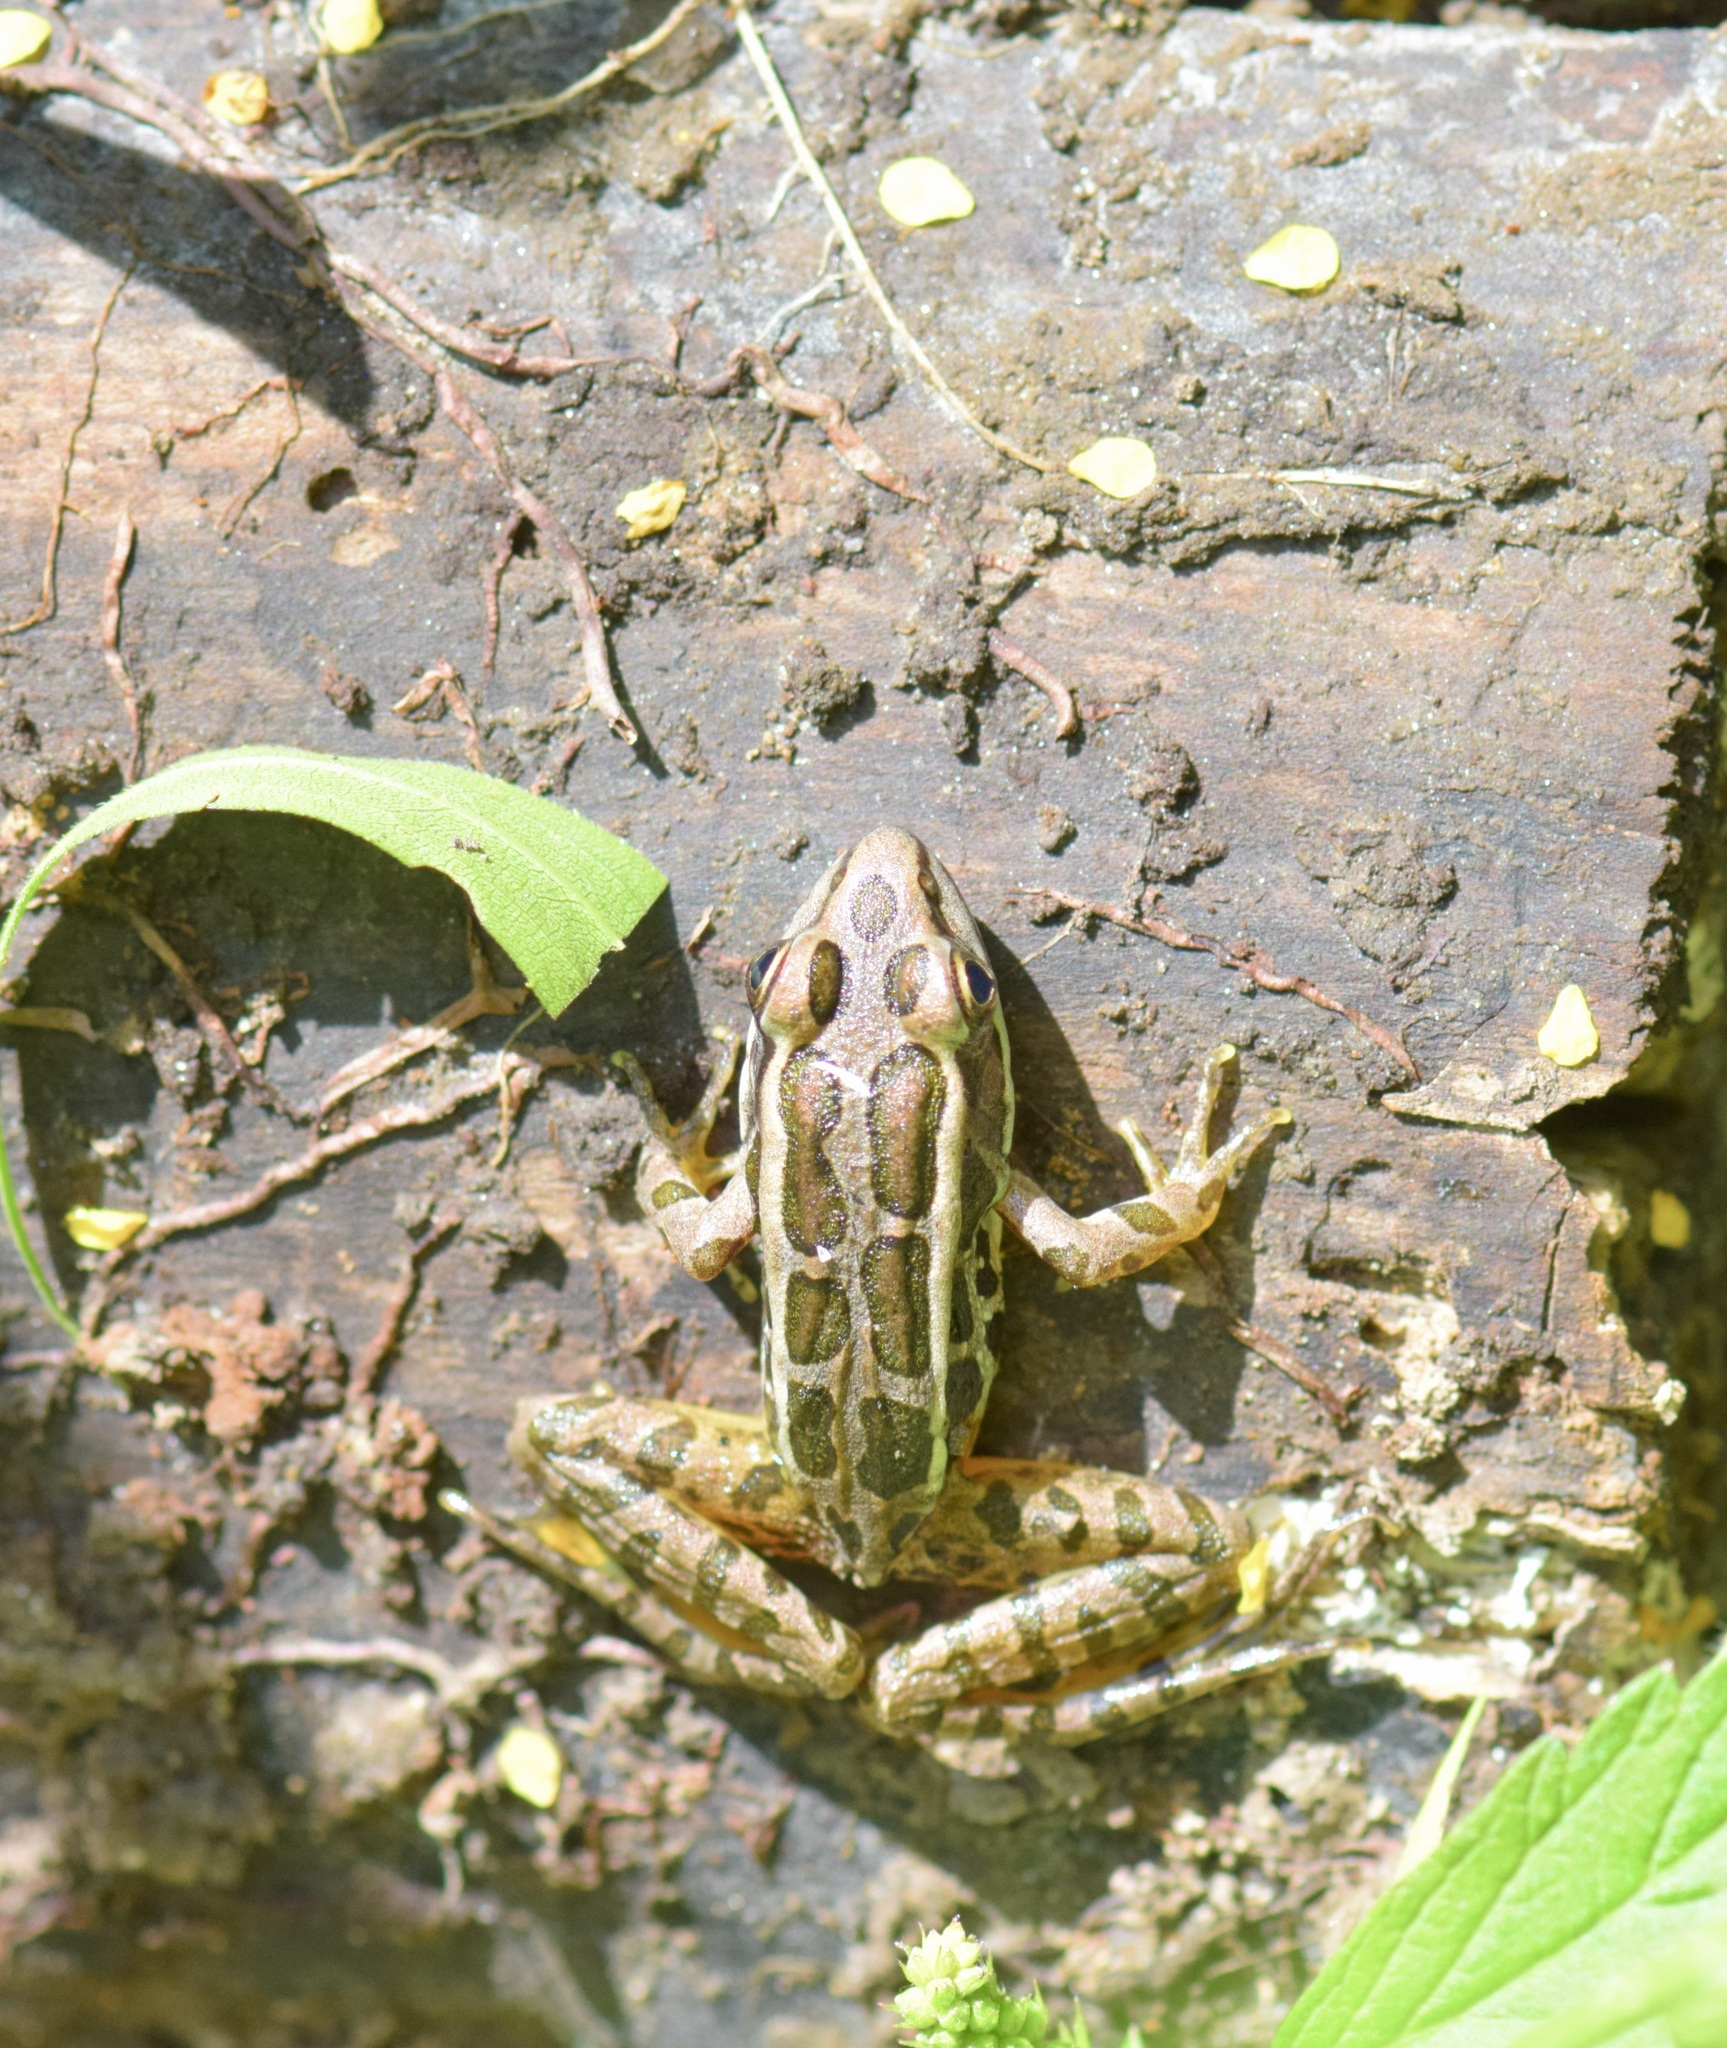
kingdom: Animalia
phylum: Chordata
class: Amphibia
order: Anura
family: Ranidae
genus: Lithobates
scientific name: Lithobates palustris
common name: Pickerel frog
